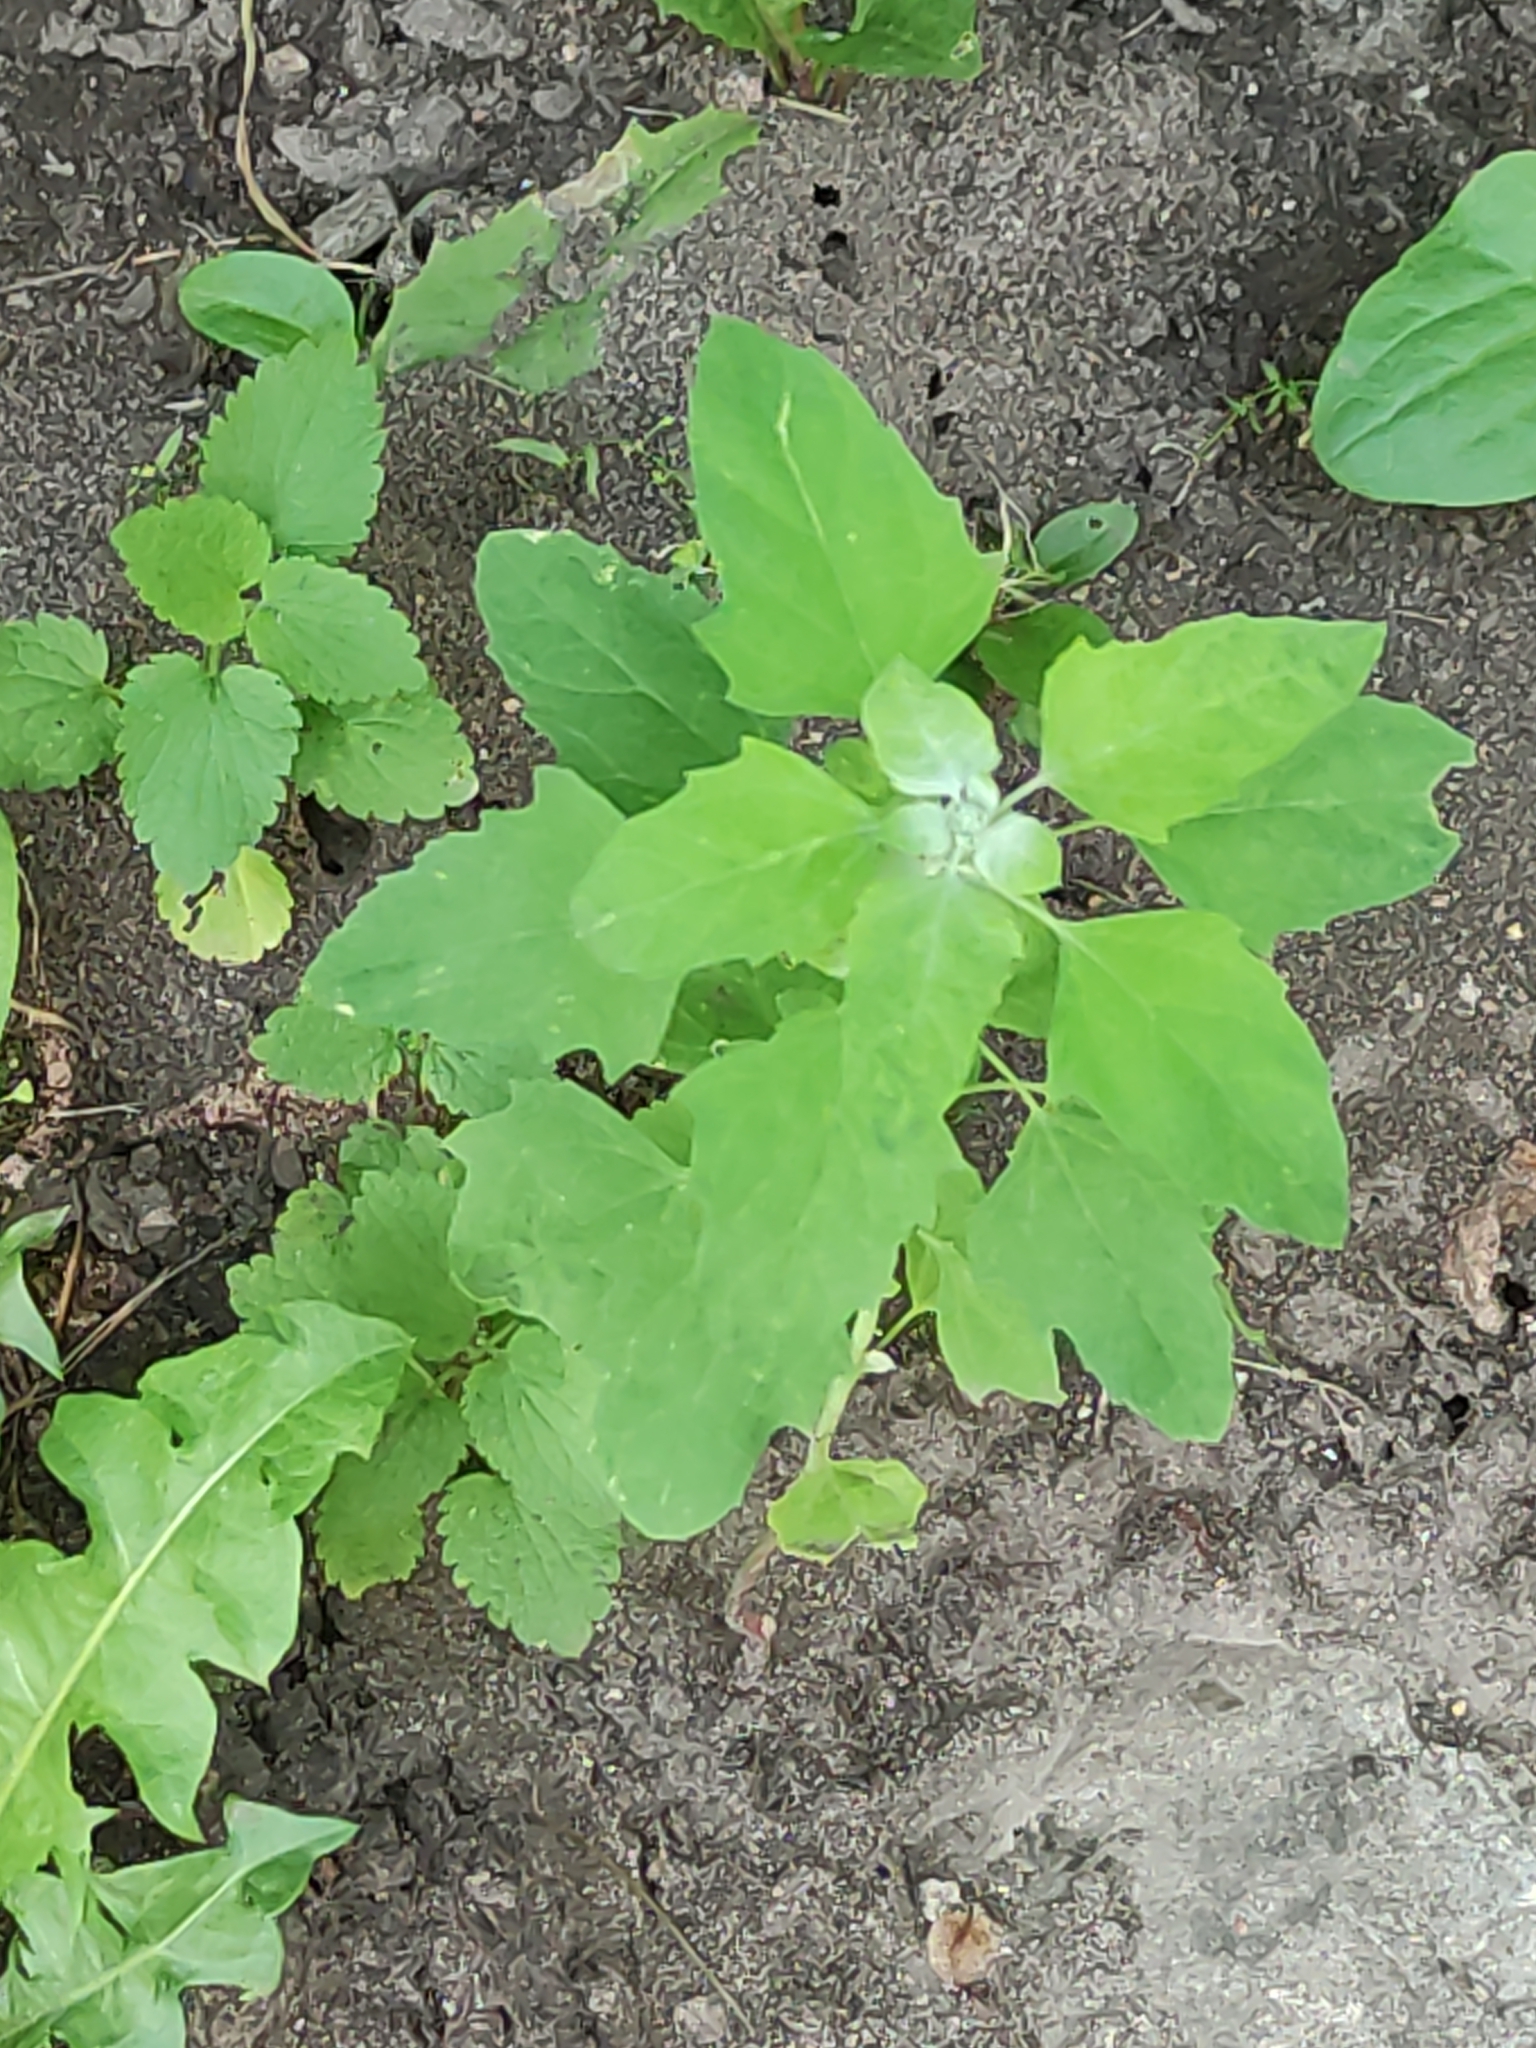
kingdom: Plantae
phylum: Tracheophyta
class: Magnoliopsida
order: Caryophyllales
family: Amaranthaceae
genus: Chenopodium
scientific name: Chenopodium album
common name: Fat-hen
